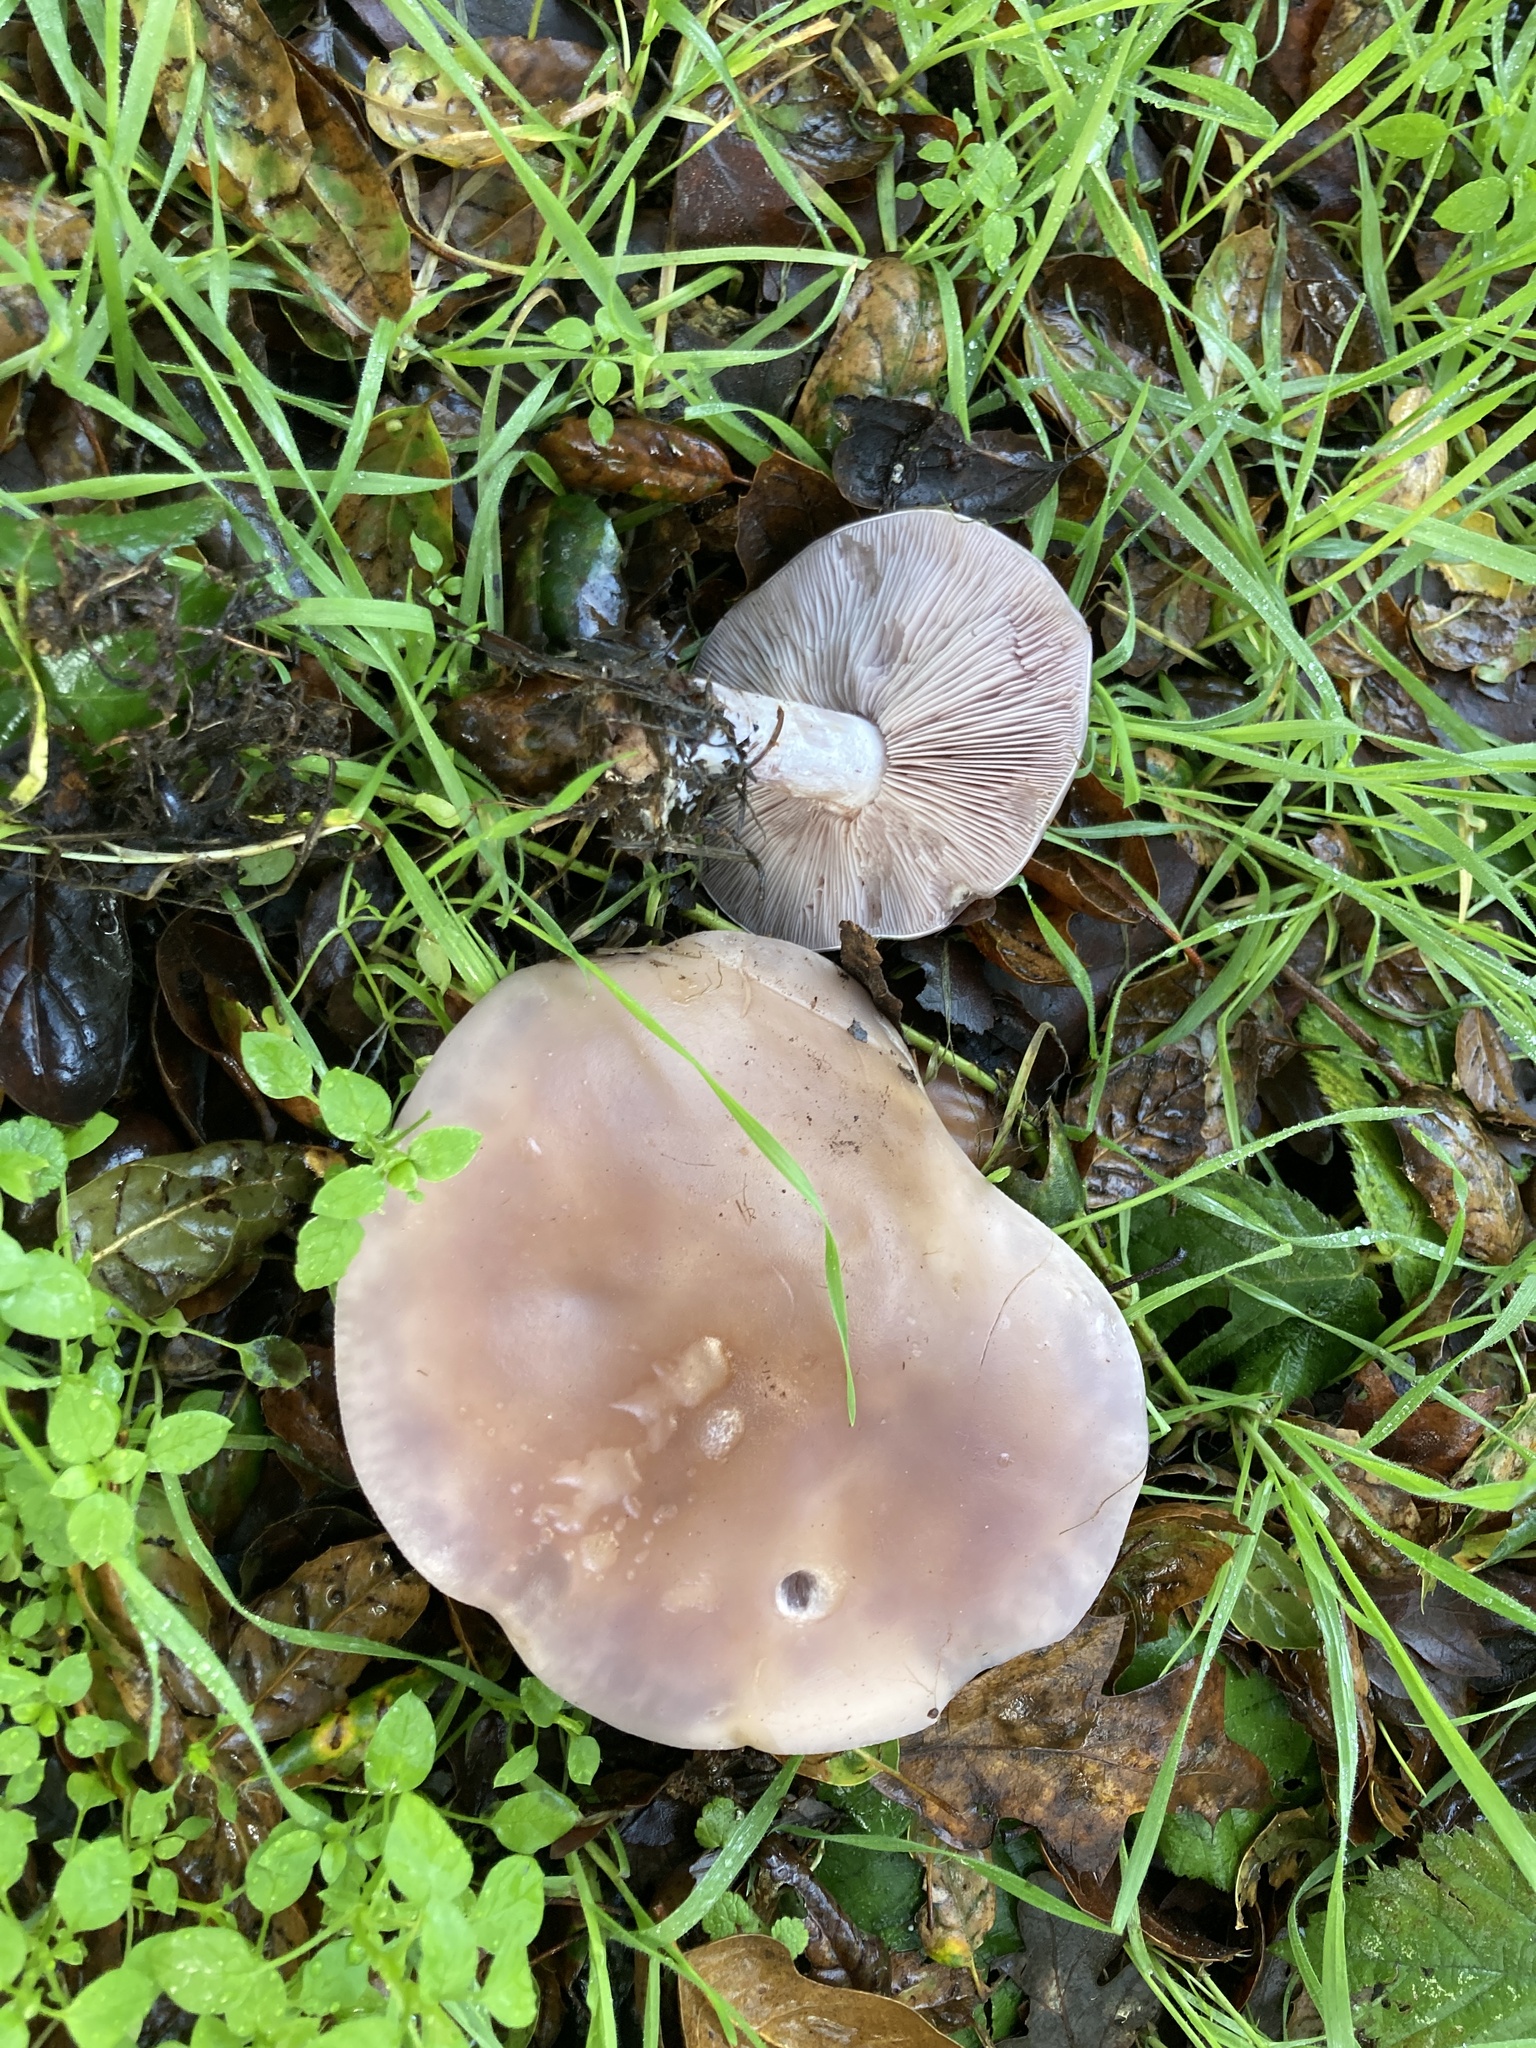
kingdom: Fungi
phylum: Basidiomycota
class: Agaricomycetes
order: Agaricales
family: Tricholomataceae
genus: Collybia
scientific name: Collybia
